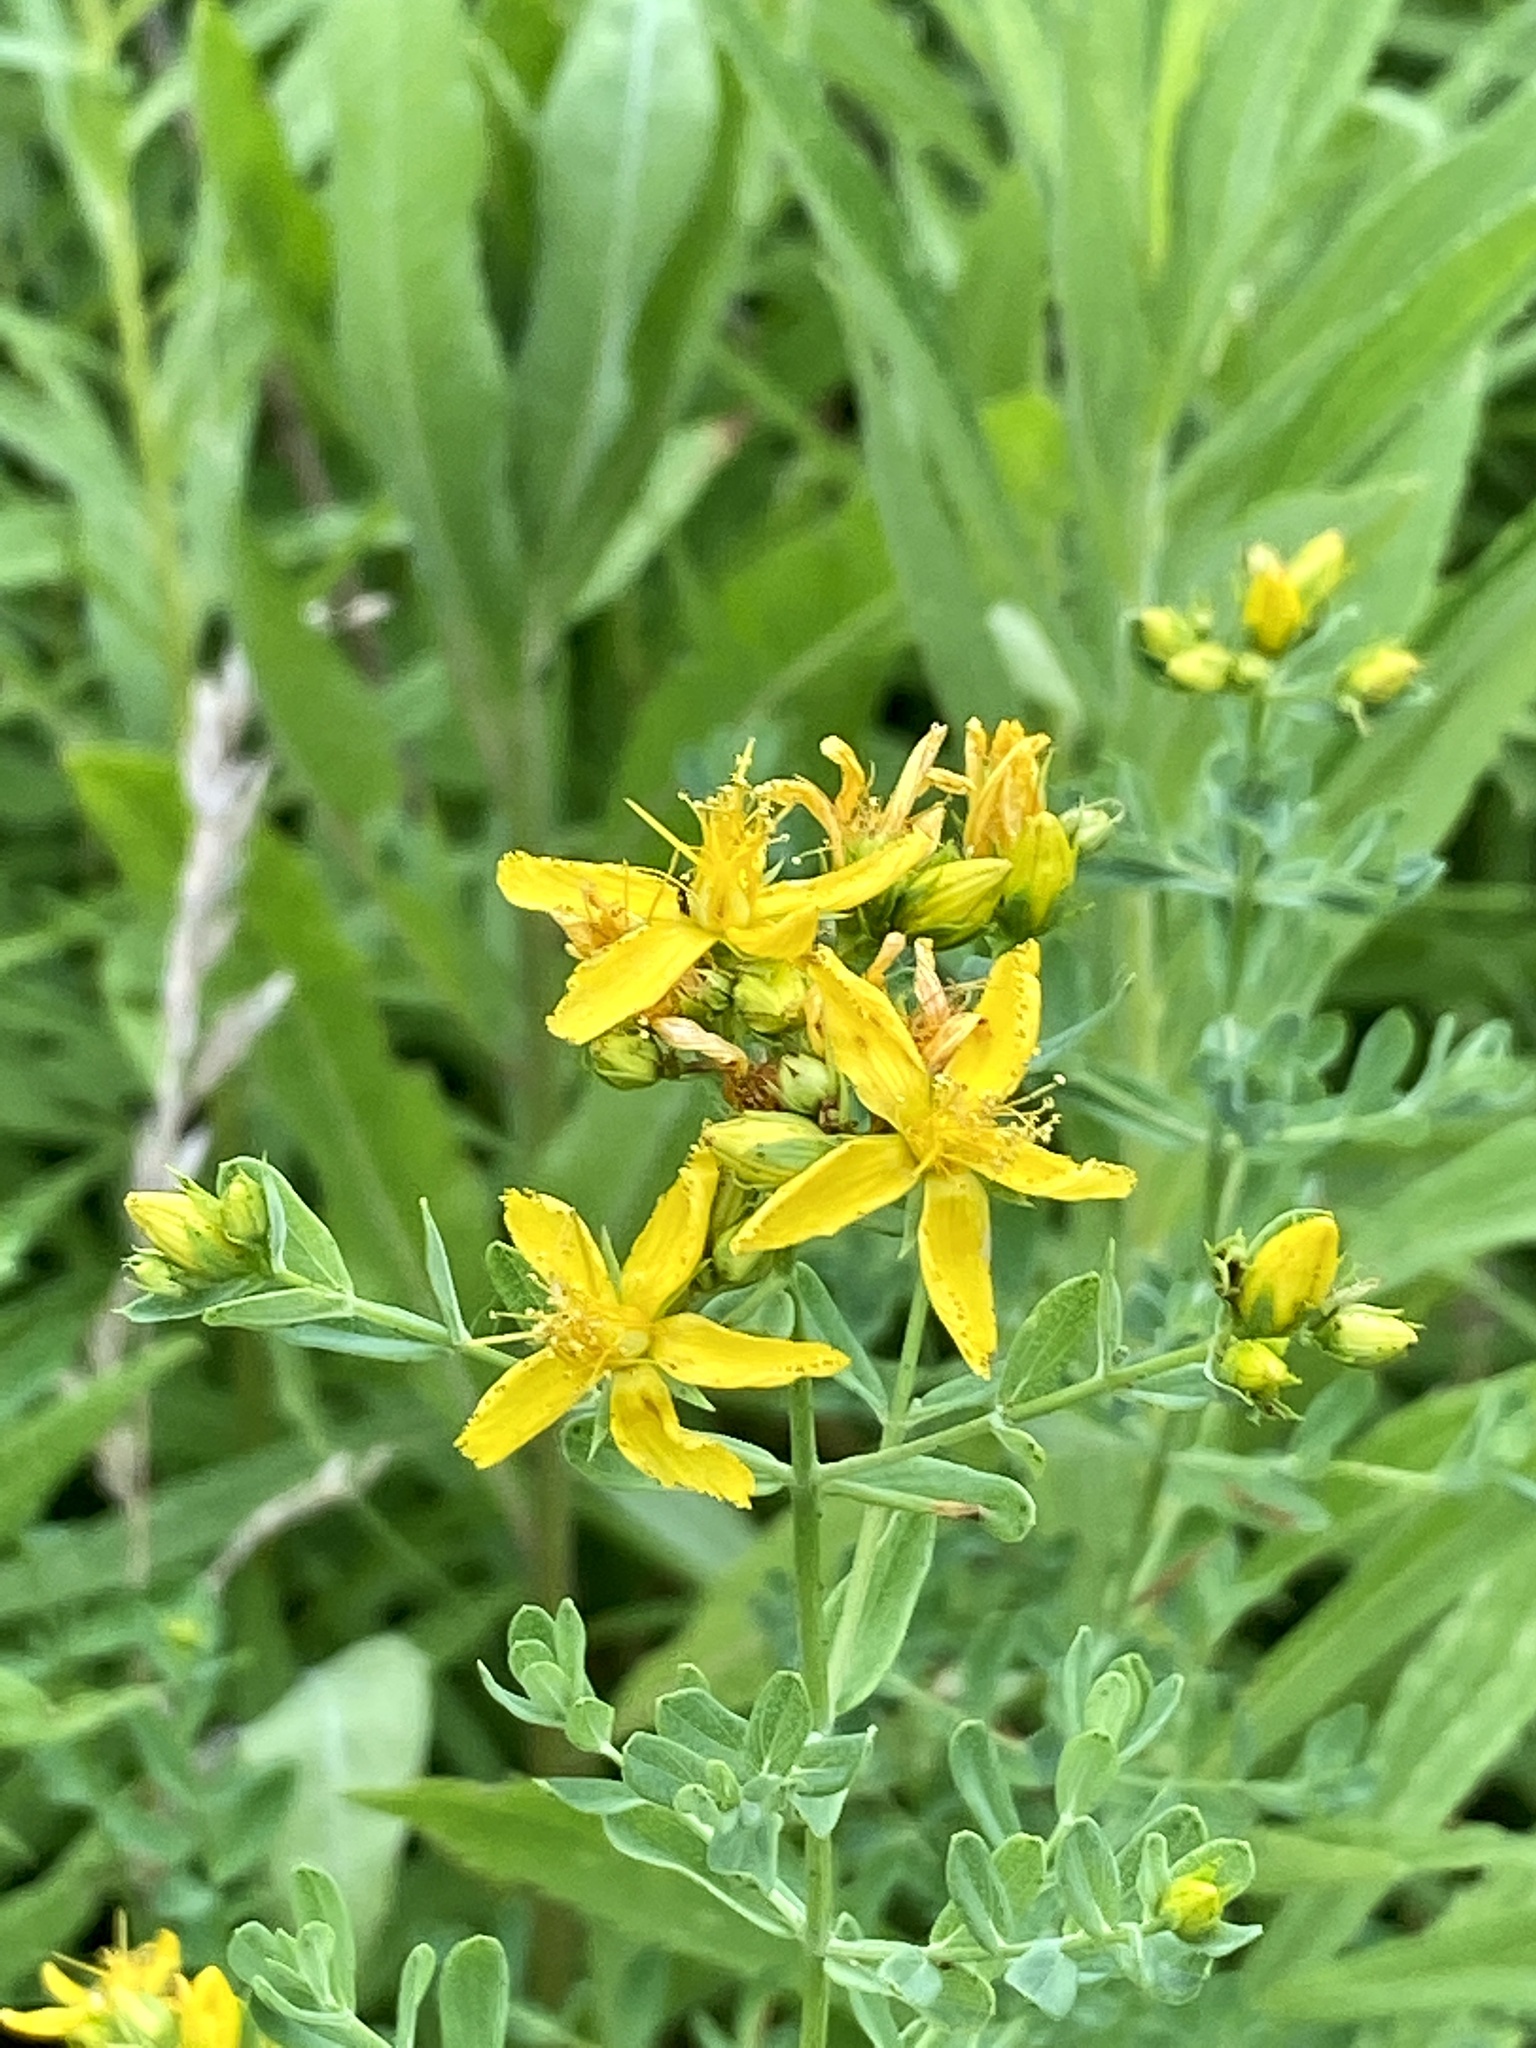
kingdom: Plantae
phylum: Tracheophyta
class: Magnoliopsida
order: Malpighiales
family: Hypericaceae
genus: Hypericum
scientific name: Hypericum perforatum
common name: Common st. johnswort
